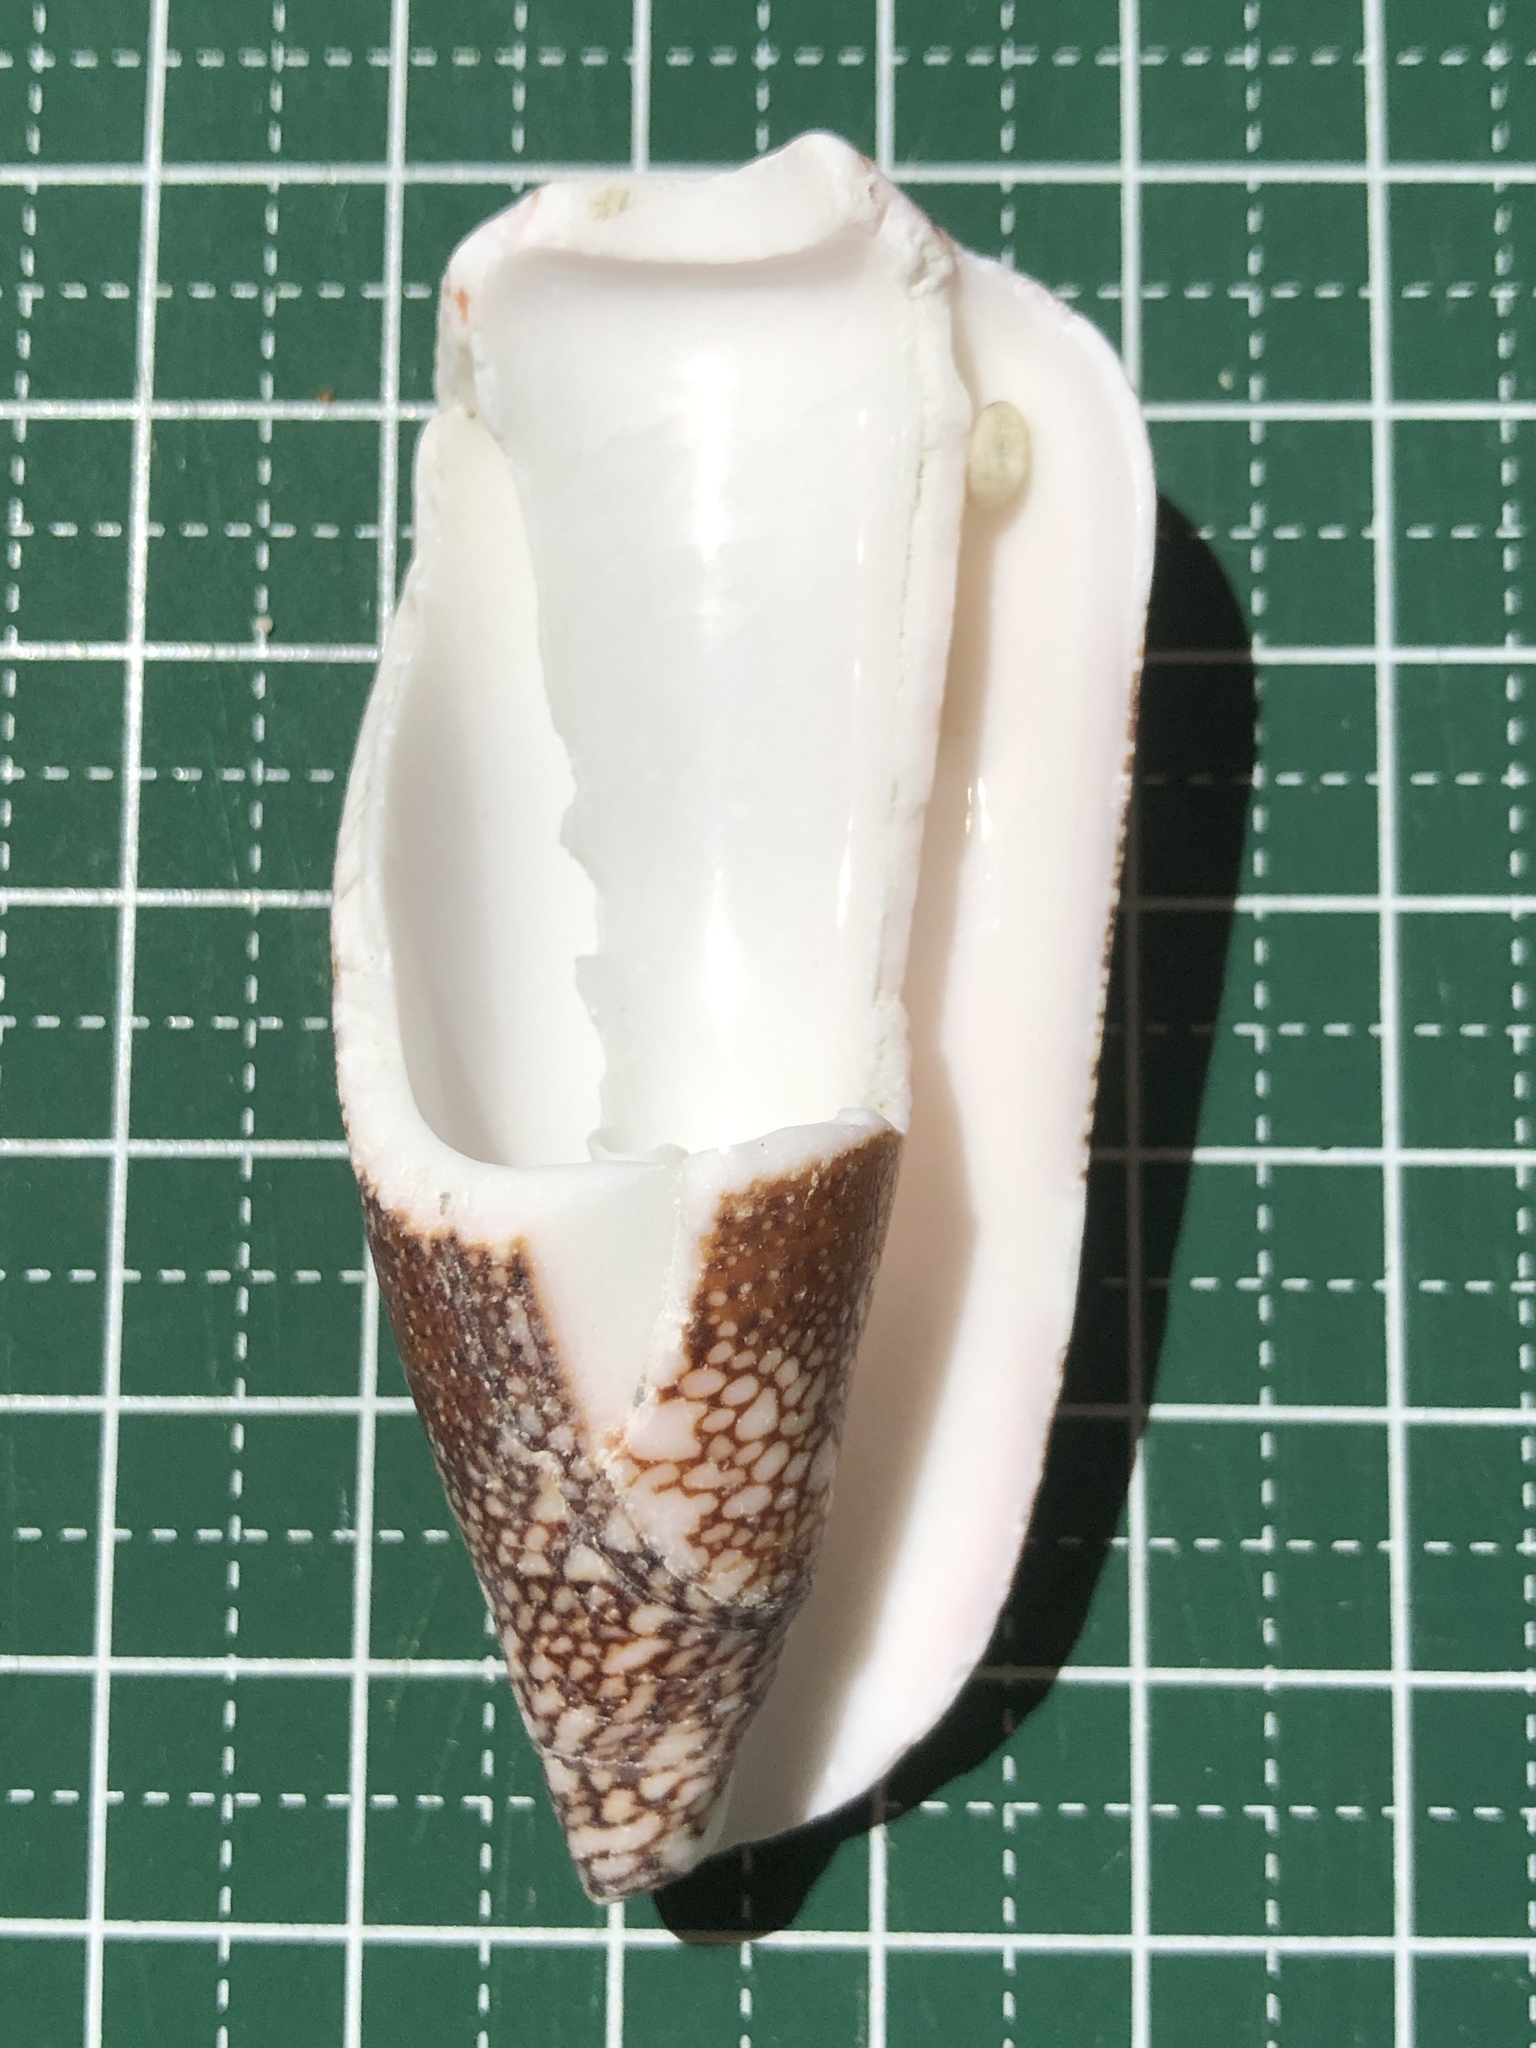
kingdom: Animalia
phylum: Mollusca
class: Gastropoda
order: Neogastropoda
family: Conidae
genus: Conus
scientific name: Conus magnificus
